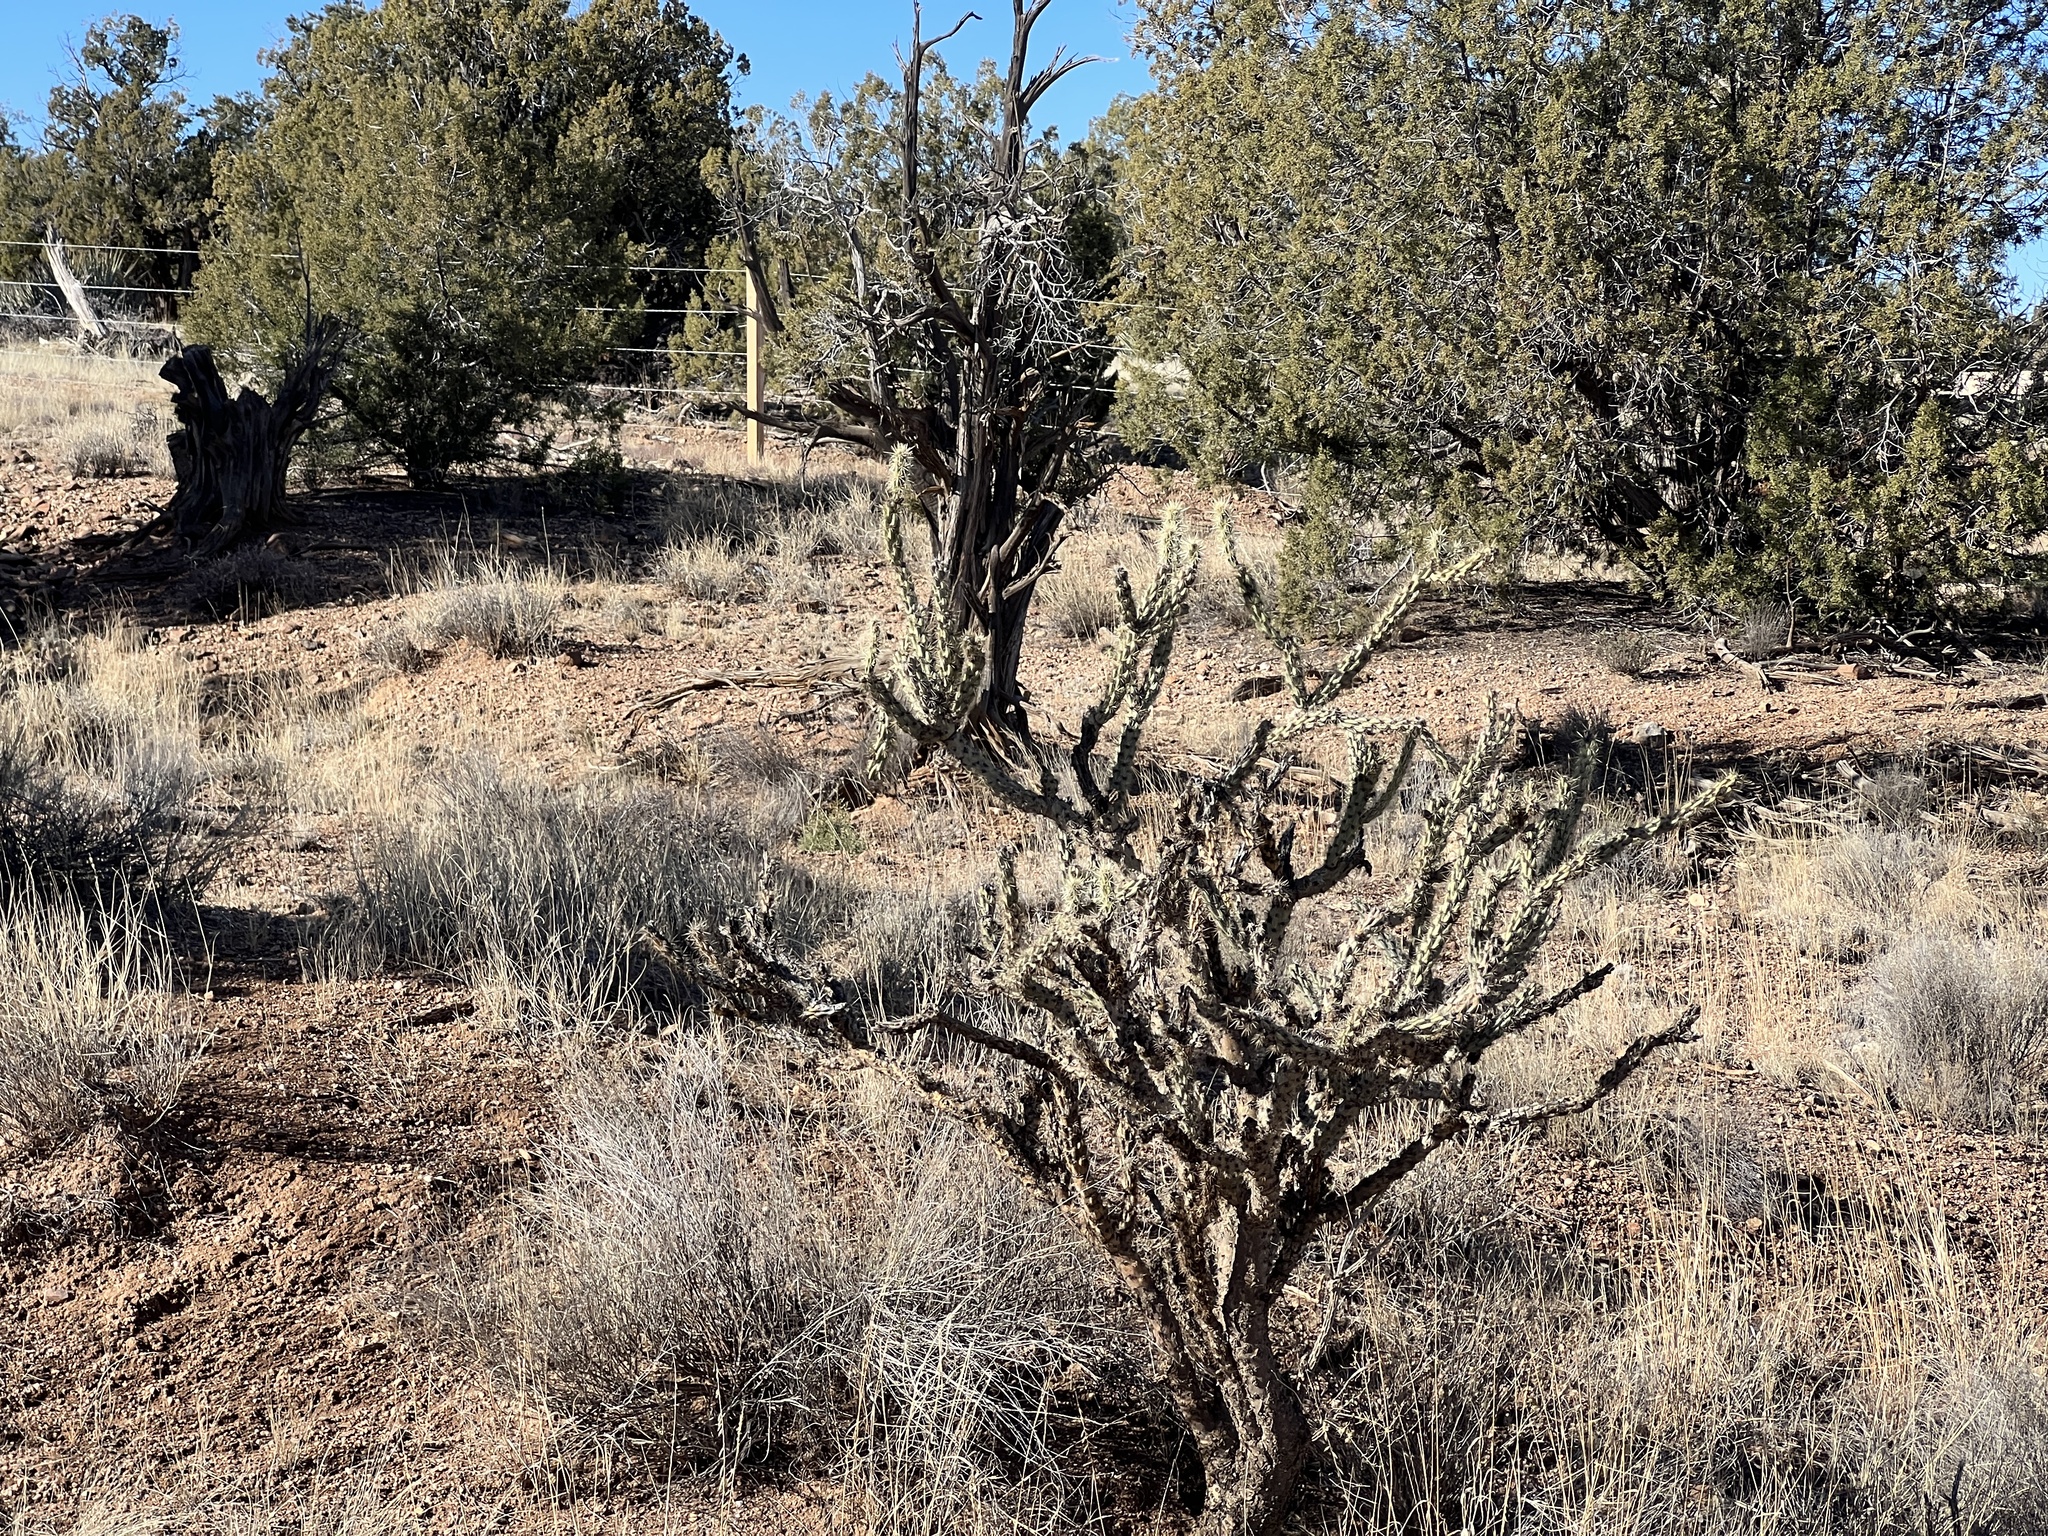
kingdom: Plantae
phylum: Tracheophyta
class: Magnoliopsida
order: Caryophyllales
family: Cactaceae
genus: Cylindropuntia
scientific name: Cylindropuntia acanthocarpa
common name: Buckhorn cholla
